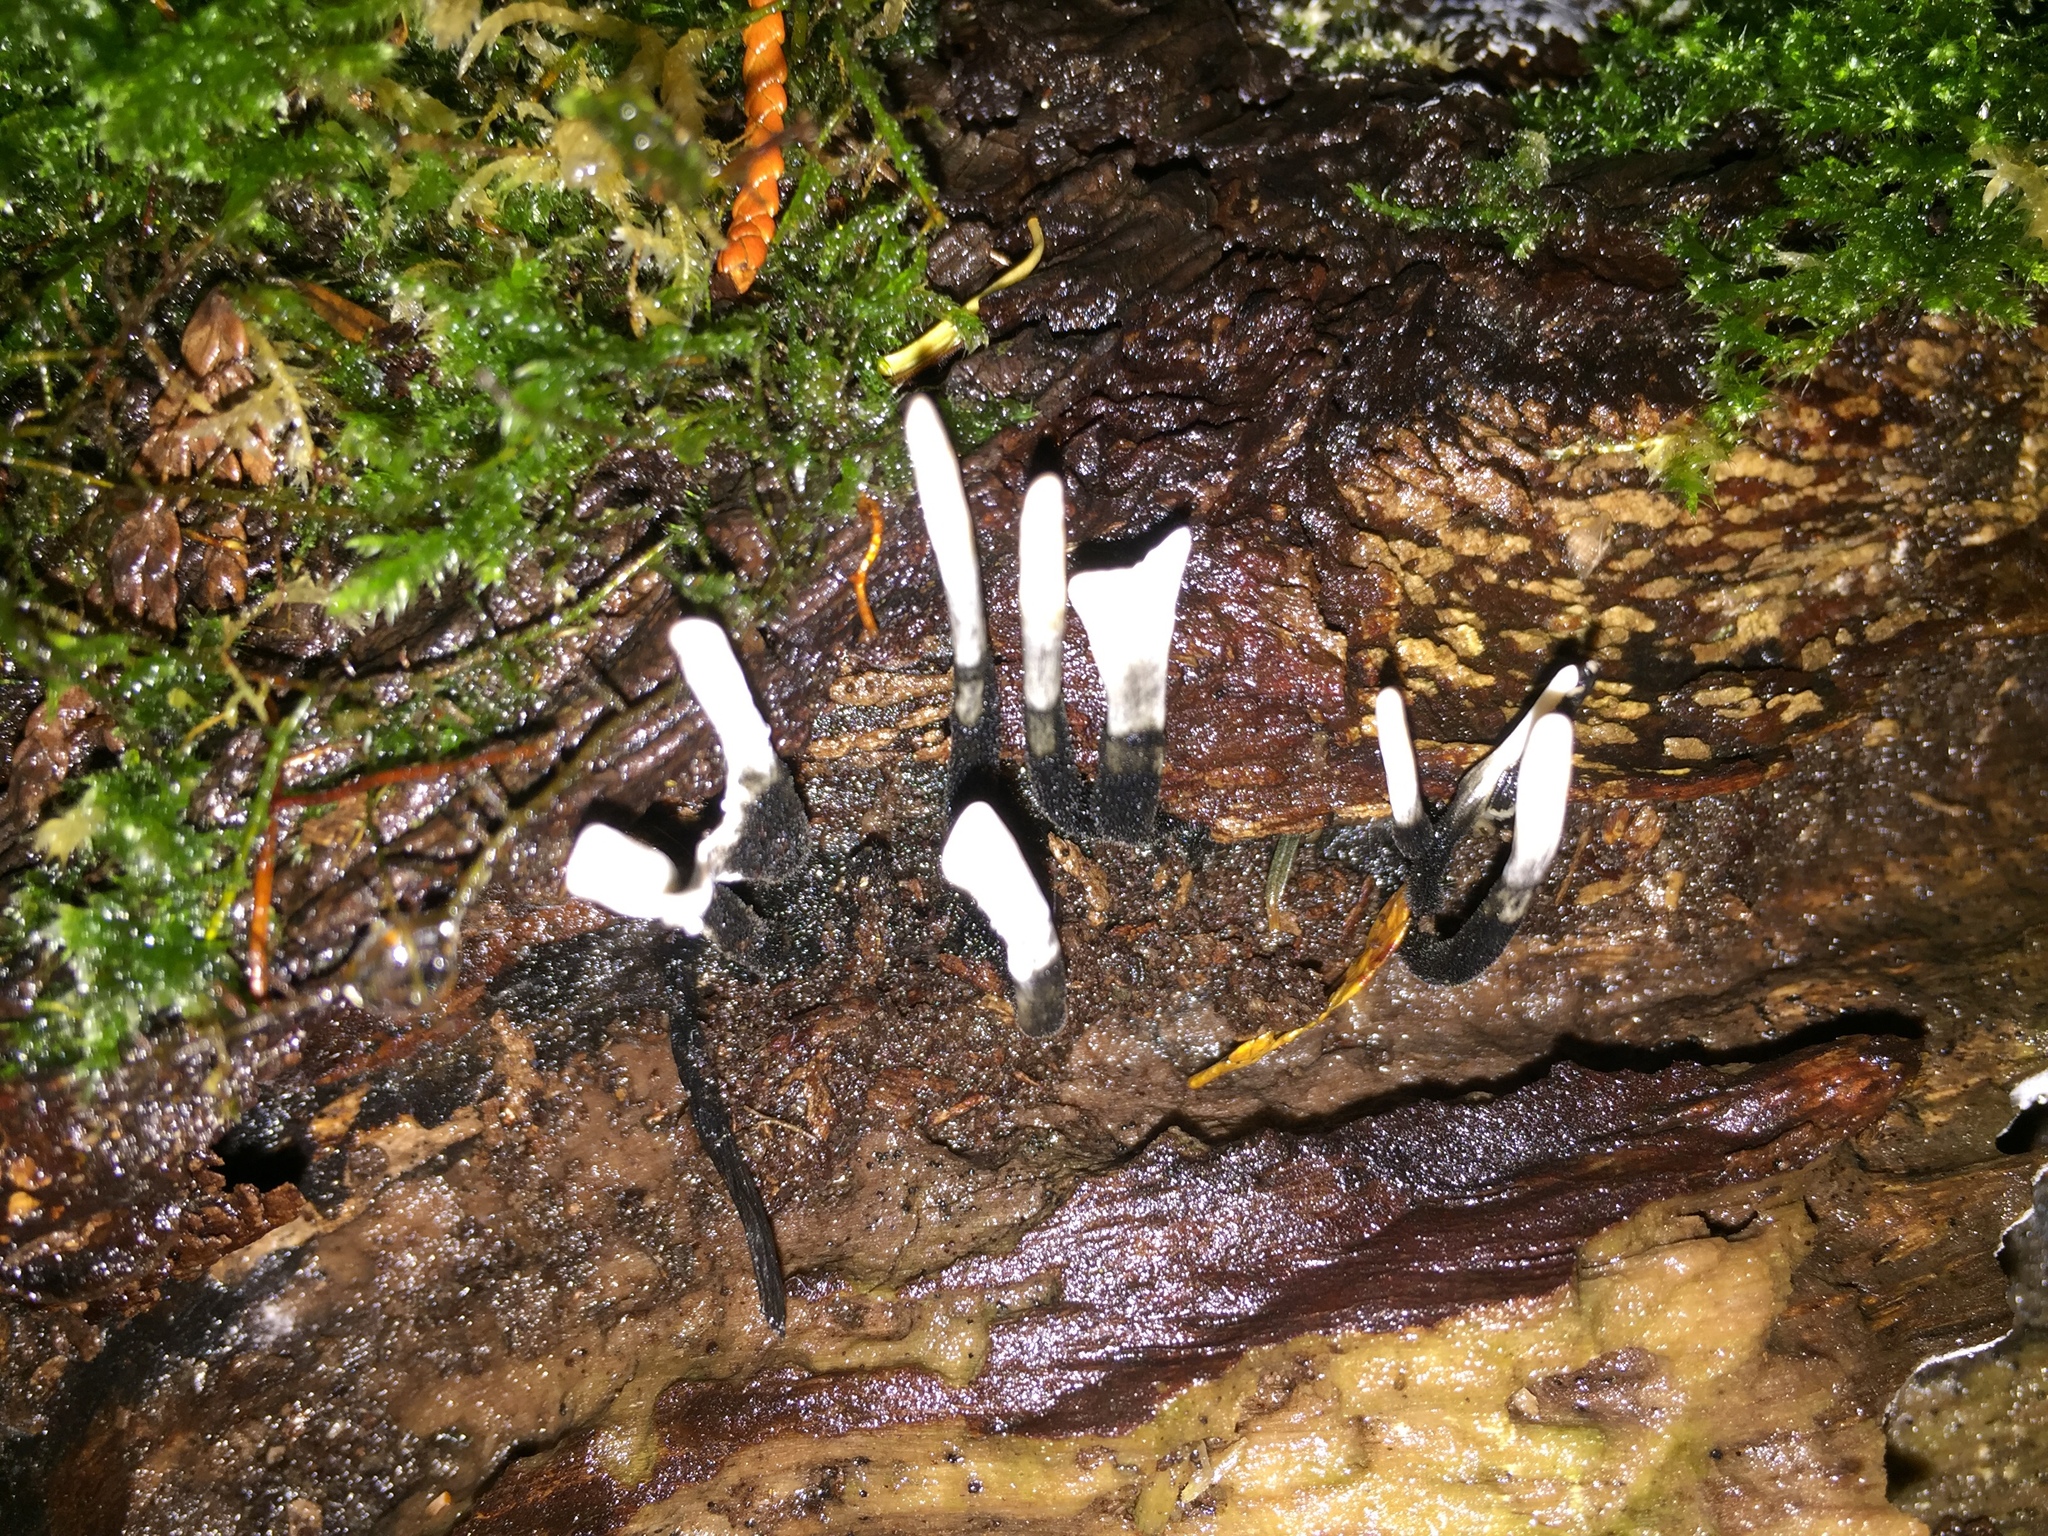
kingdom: Fungi
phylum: Ascomycota
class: Sordariomycetes
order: Xylariales
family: Xylariaceae
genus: Xylaria
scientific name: Xylaria hypoxylon
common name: Candle-snuff fungus
